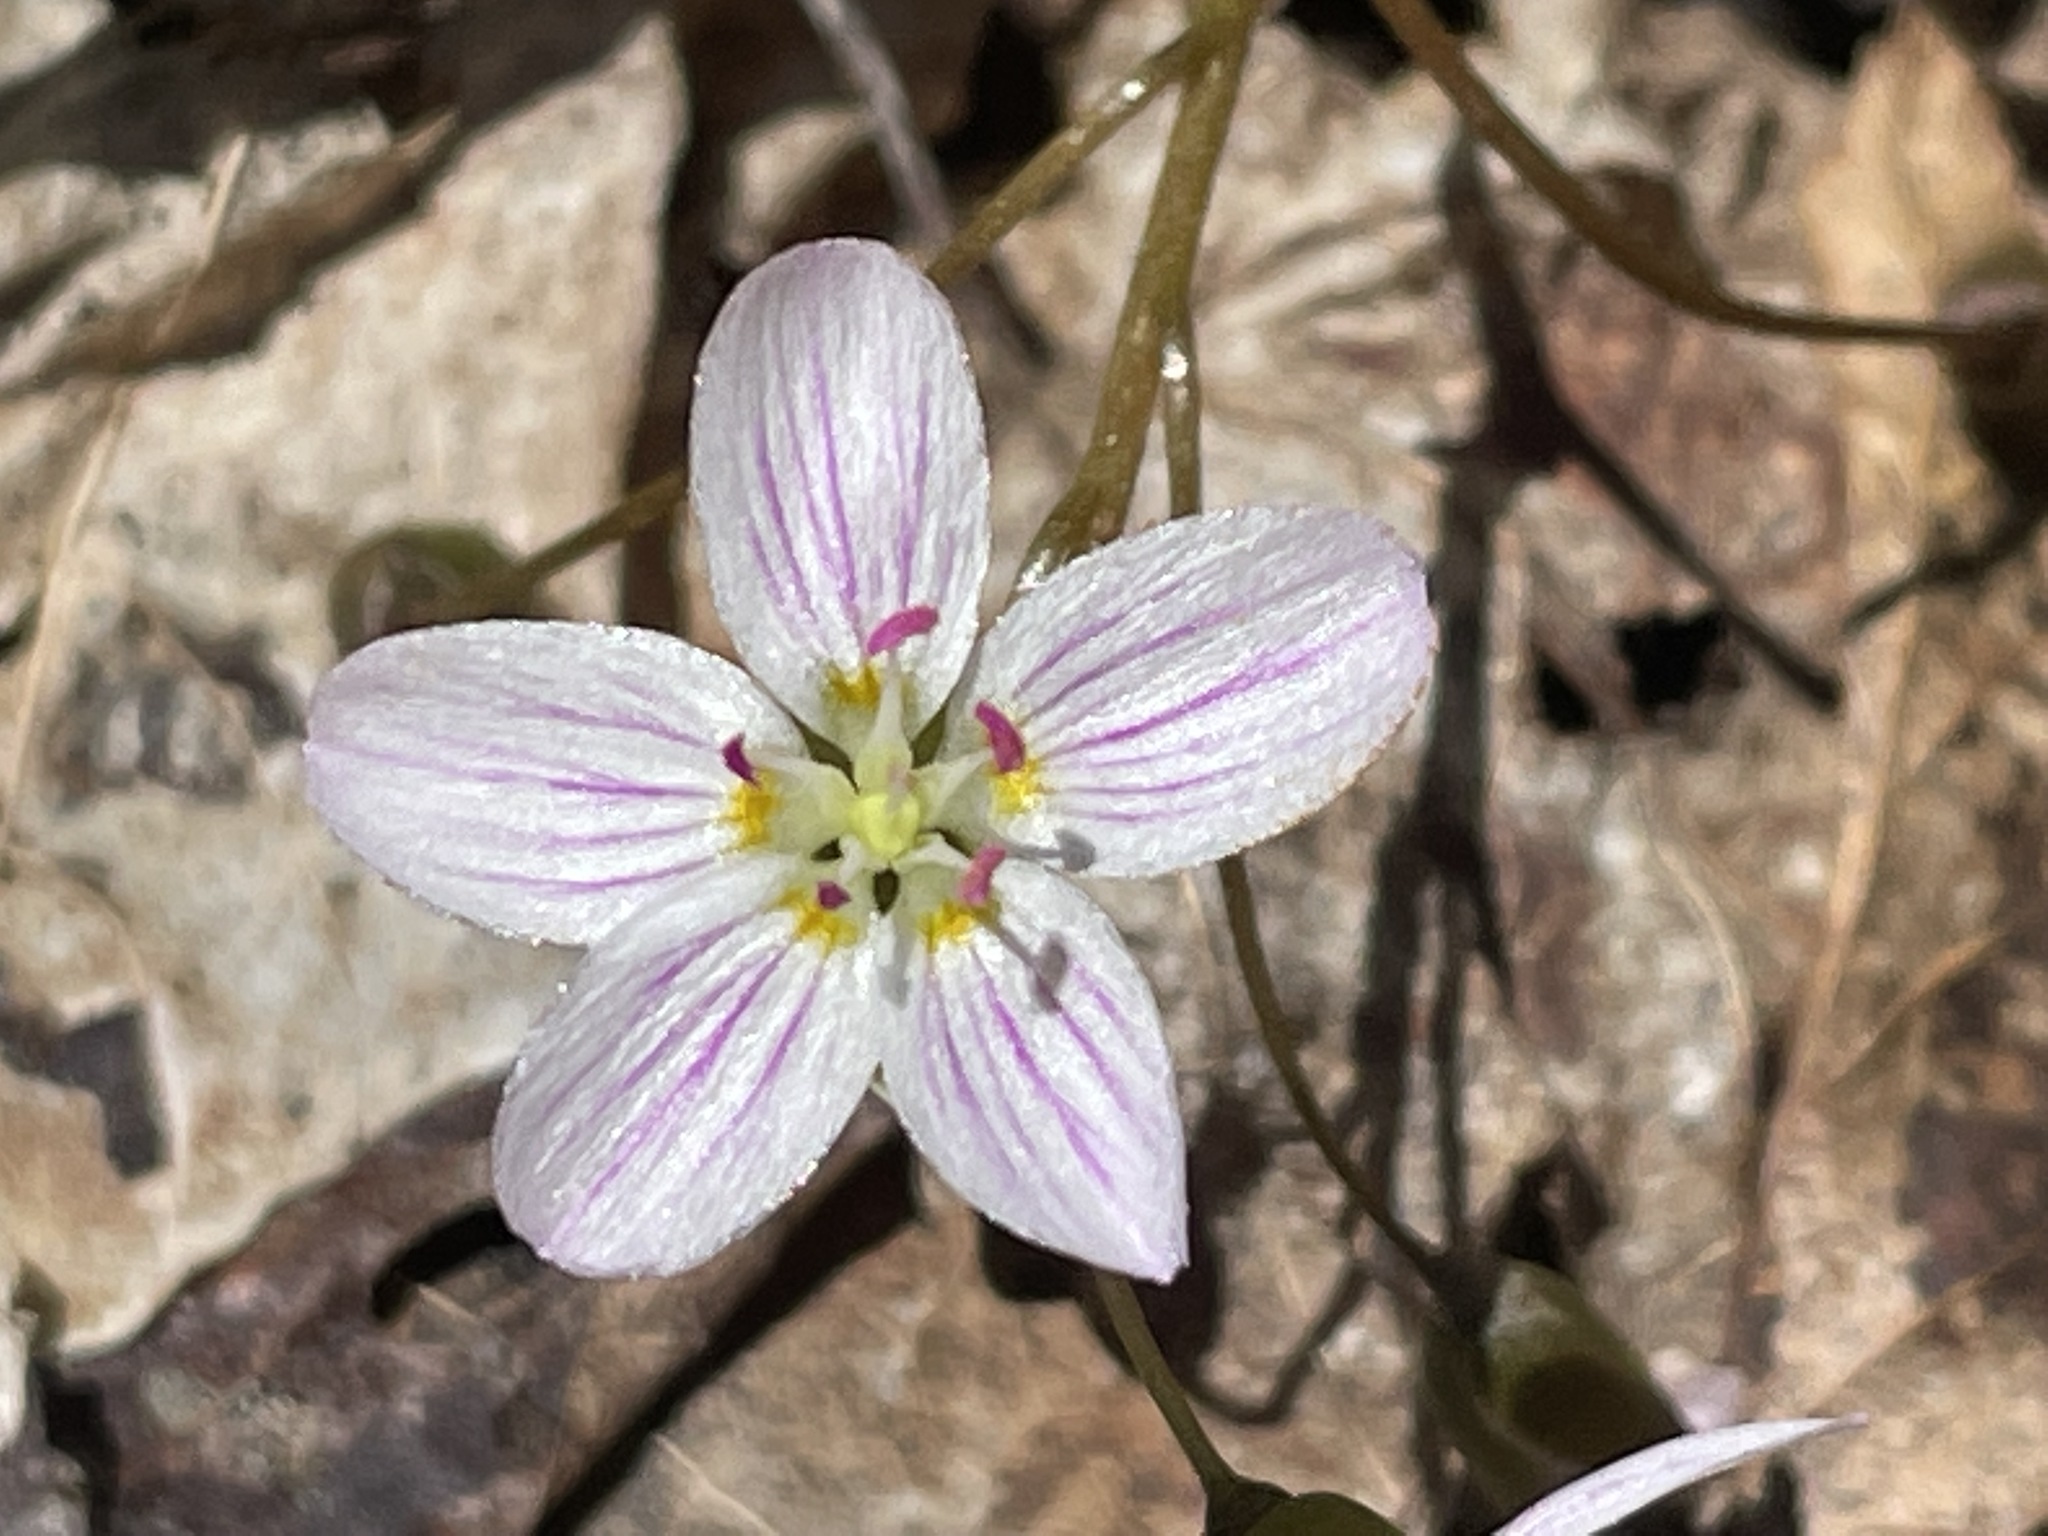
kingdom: Plantae
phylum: Tracheophyta
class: Magnoliopsida
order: Caryophyllales
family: Montiaceae
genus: Claytonia
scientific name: Claytonia caroliniana
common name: Carolina spring beauty
